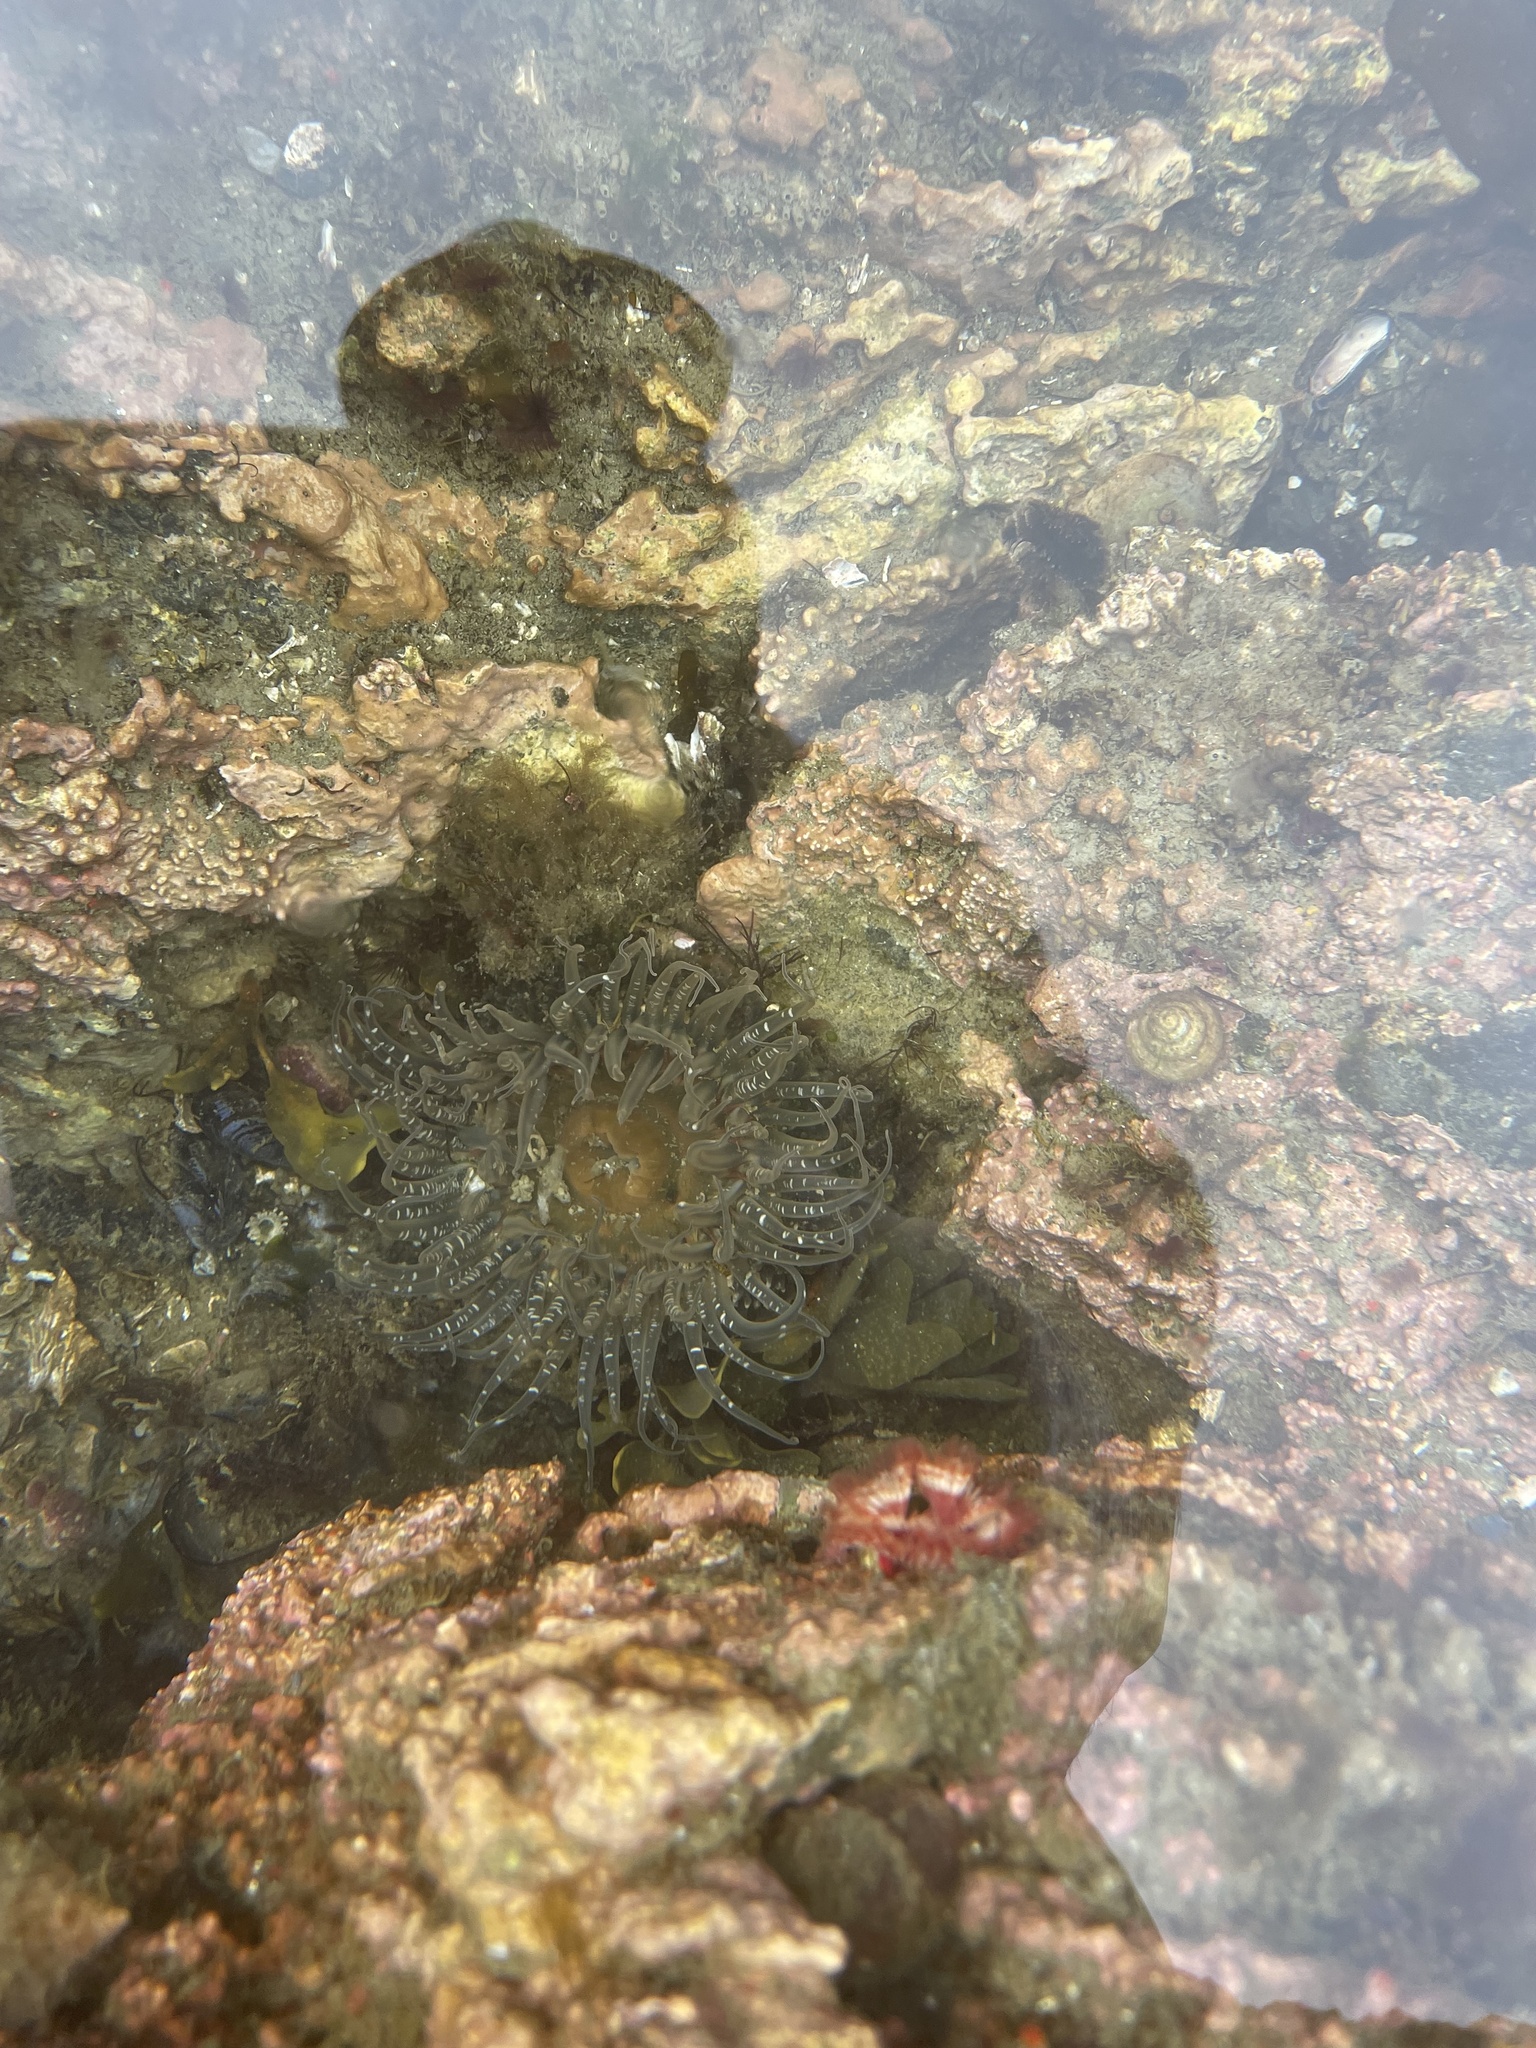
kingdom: Animalia
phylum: Cnidaria
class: Anthozoa
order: Actiniaria
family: Actiniidae
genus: Anthopleura
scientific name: Anthopleura artemisia
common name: Buried sea anemone
